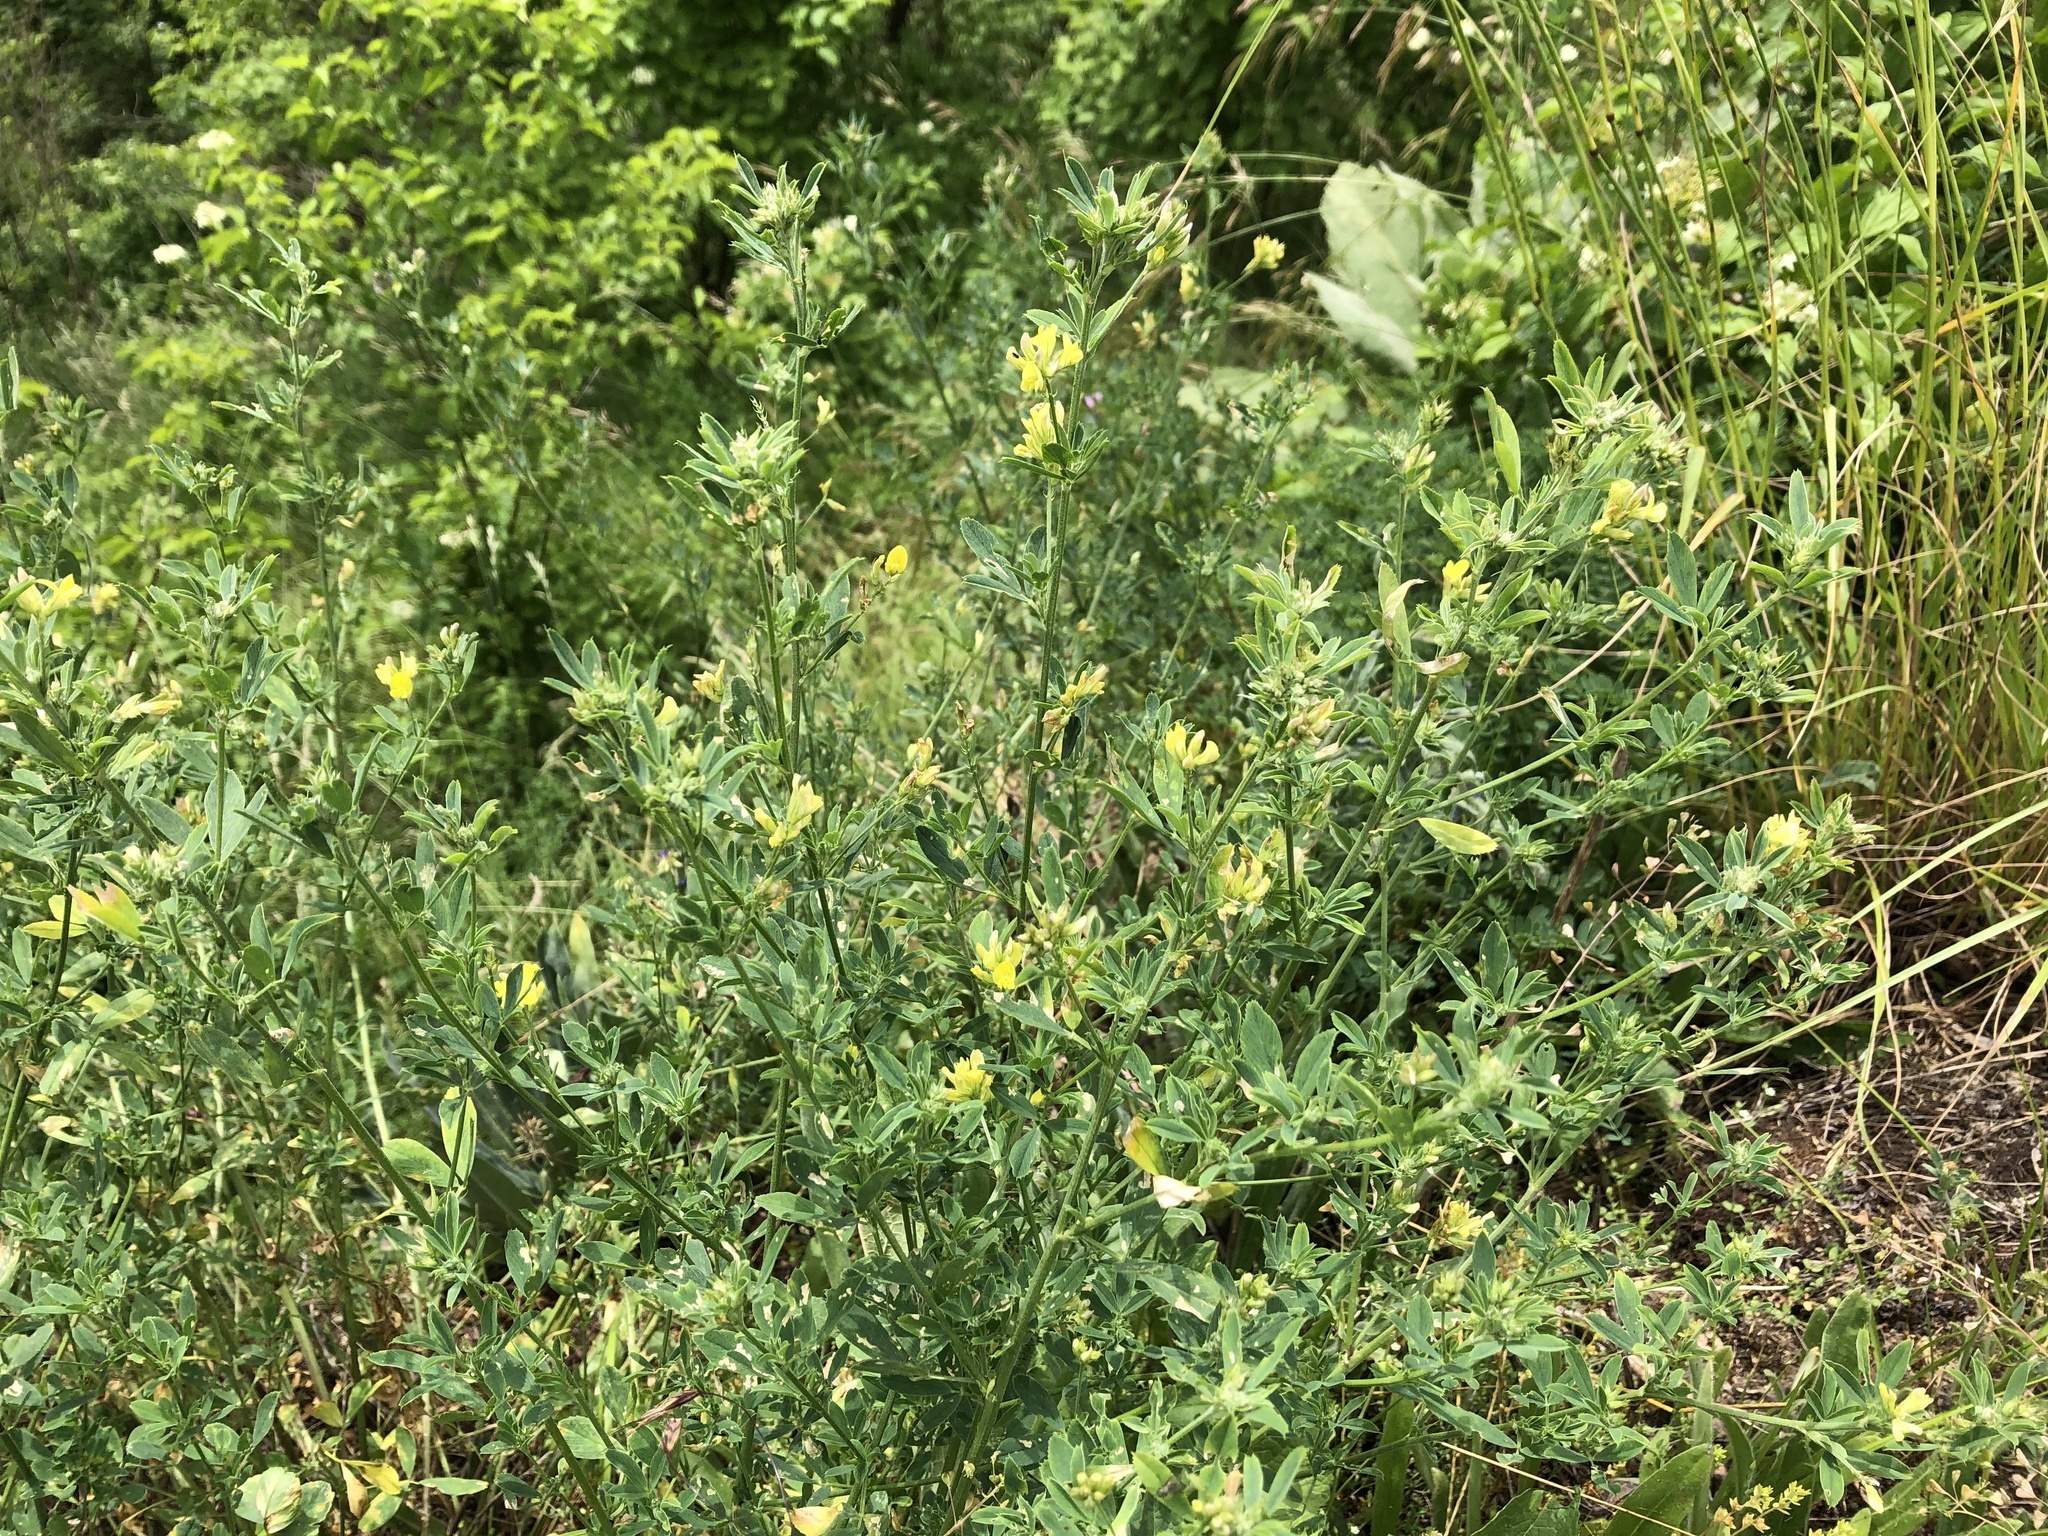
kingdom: Plantae
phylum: Tracheophyta
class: Magnoliopsida
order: Fabales
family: Fabaceae
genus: Medicago
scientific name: Medicago falcata
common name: Sickle medick
